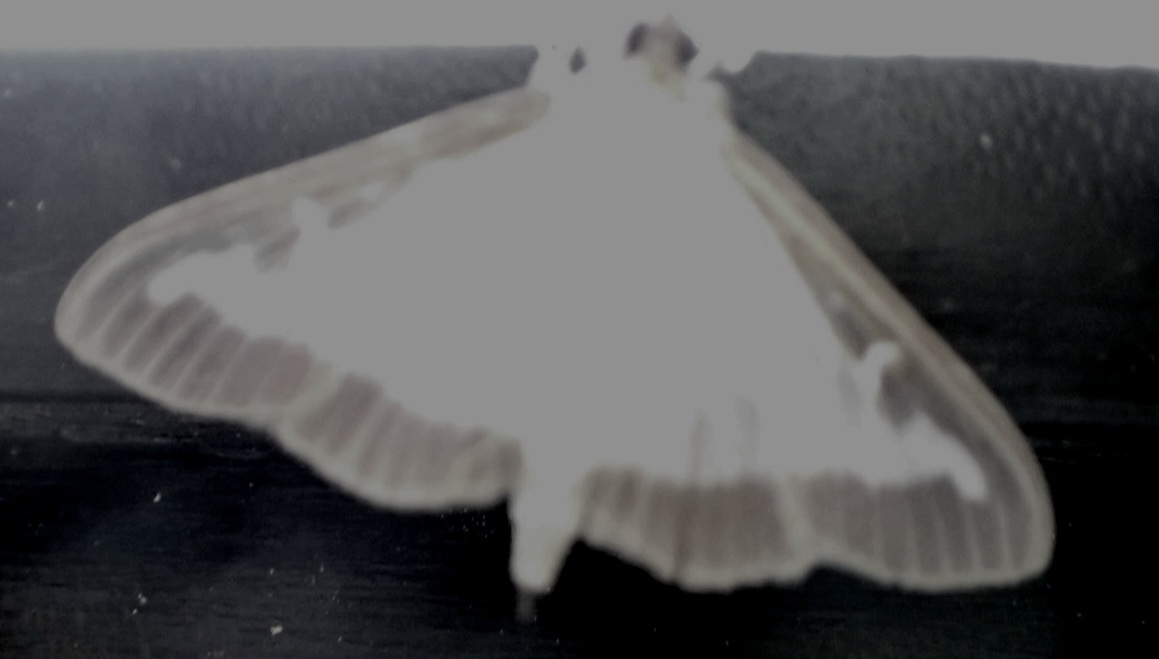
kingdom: Animalia
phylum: Arthropoda
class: Insecta
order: Lepidoptera
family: Crambidae
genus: Cydalima
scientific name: Cydalima perspectalis
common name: Box tree moth
